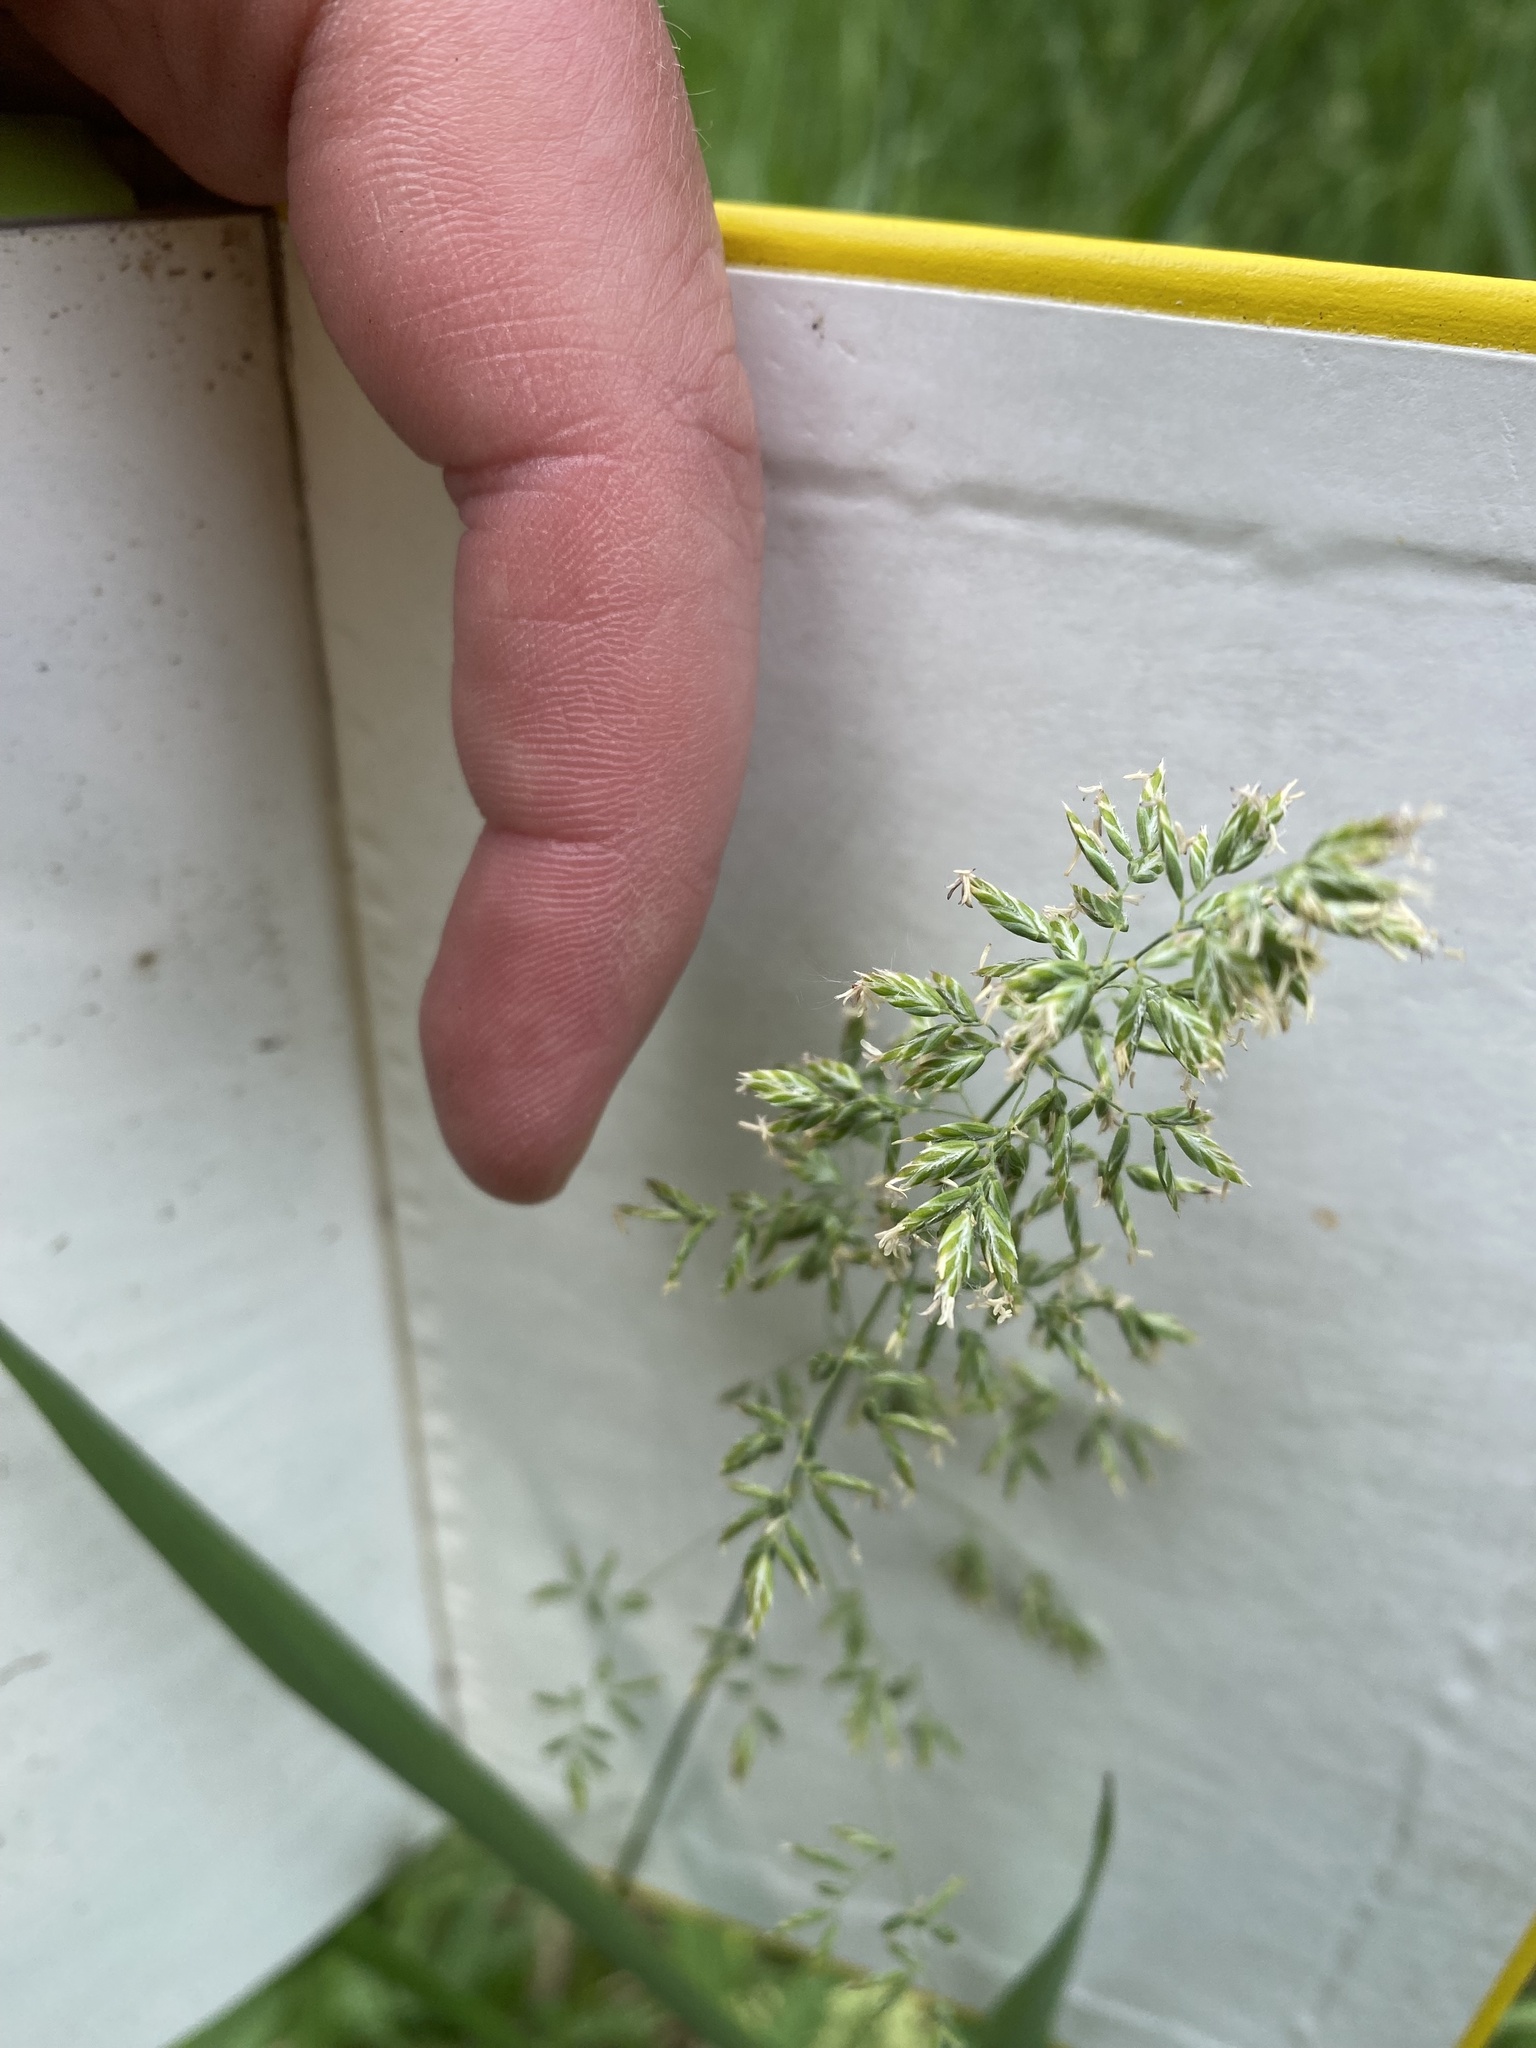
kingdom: Plantae
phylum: Tracheophyta
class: Liliopsida
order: Poales
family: Poaceae
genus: Poa
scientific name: Poa pratensis
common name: Kentucky bluegrass
